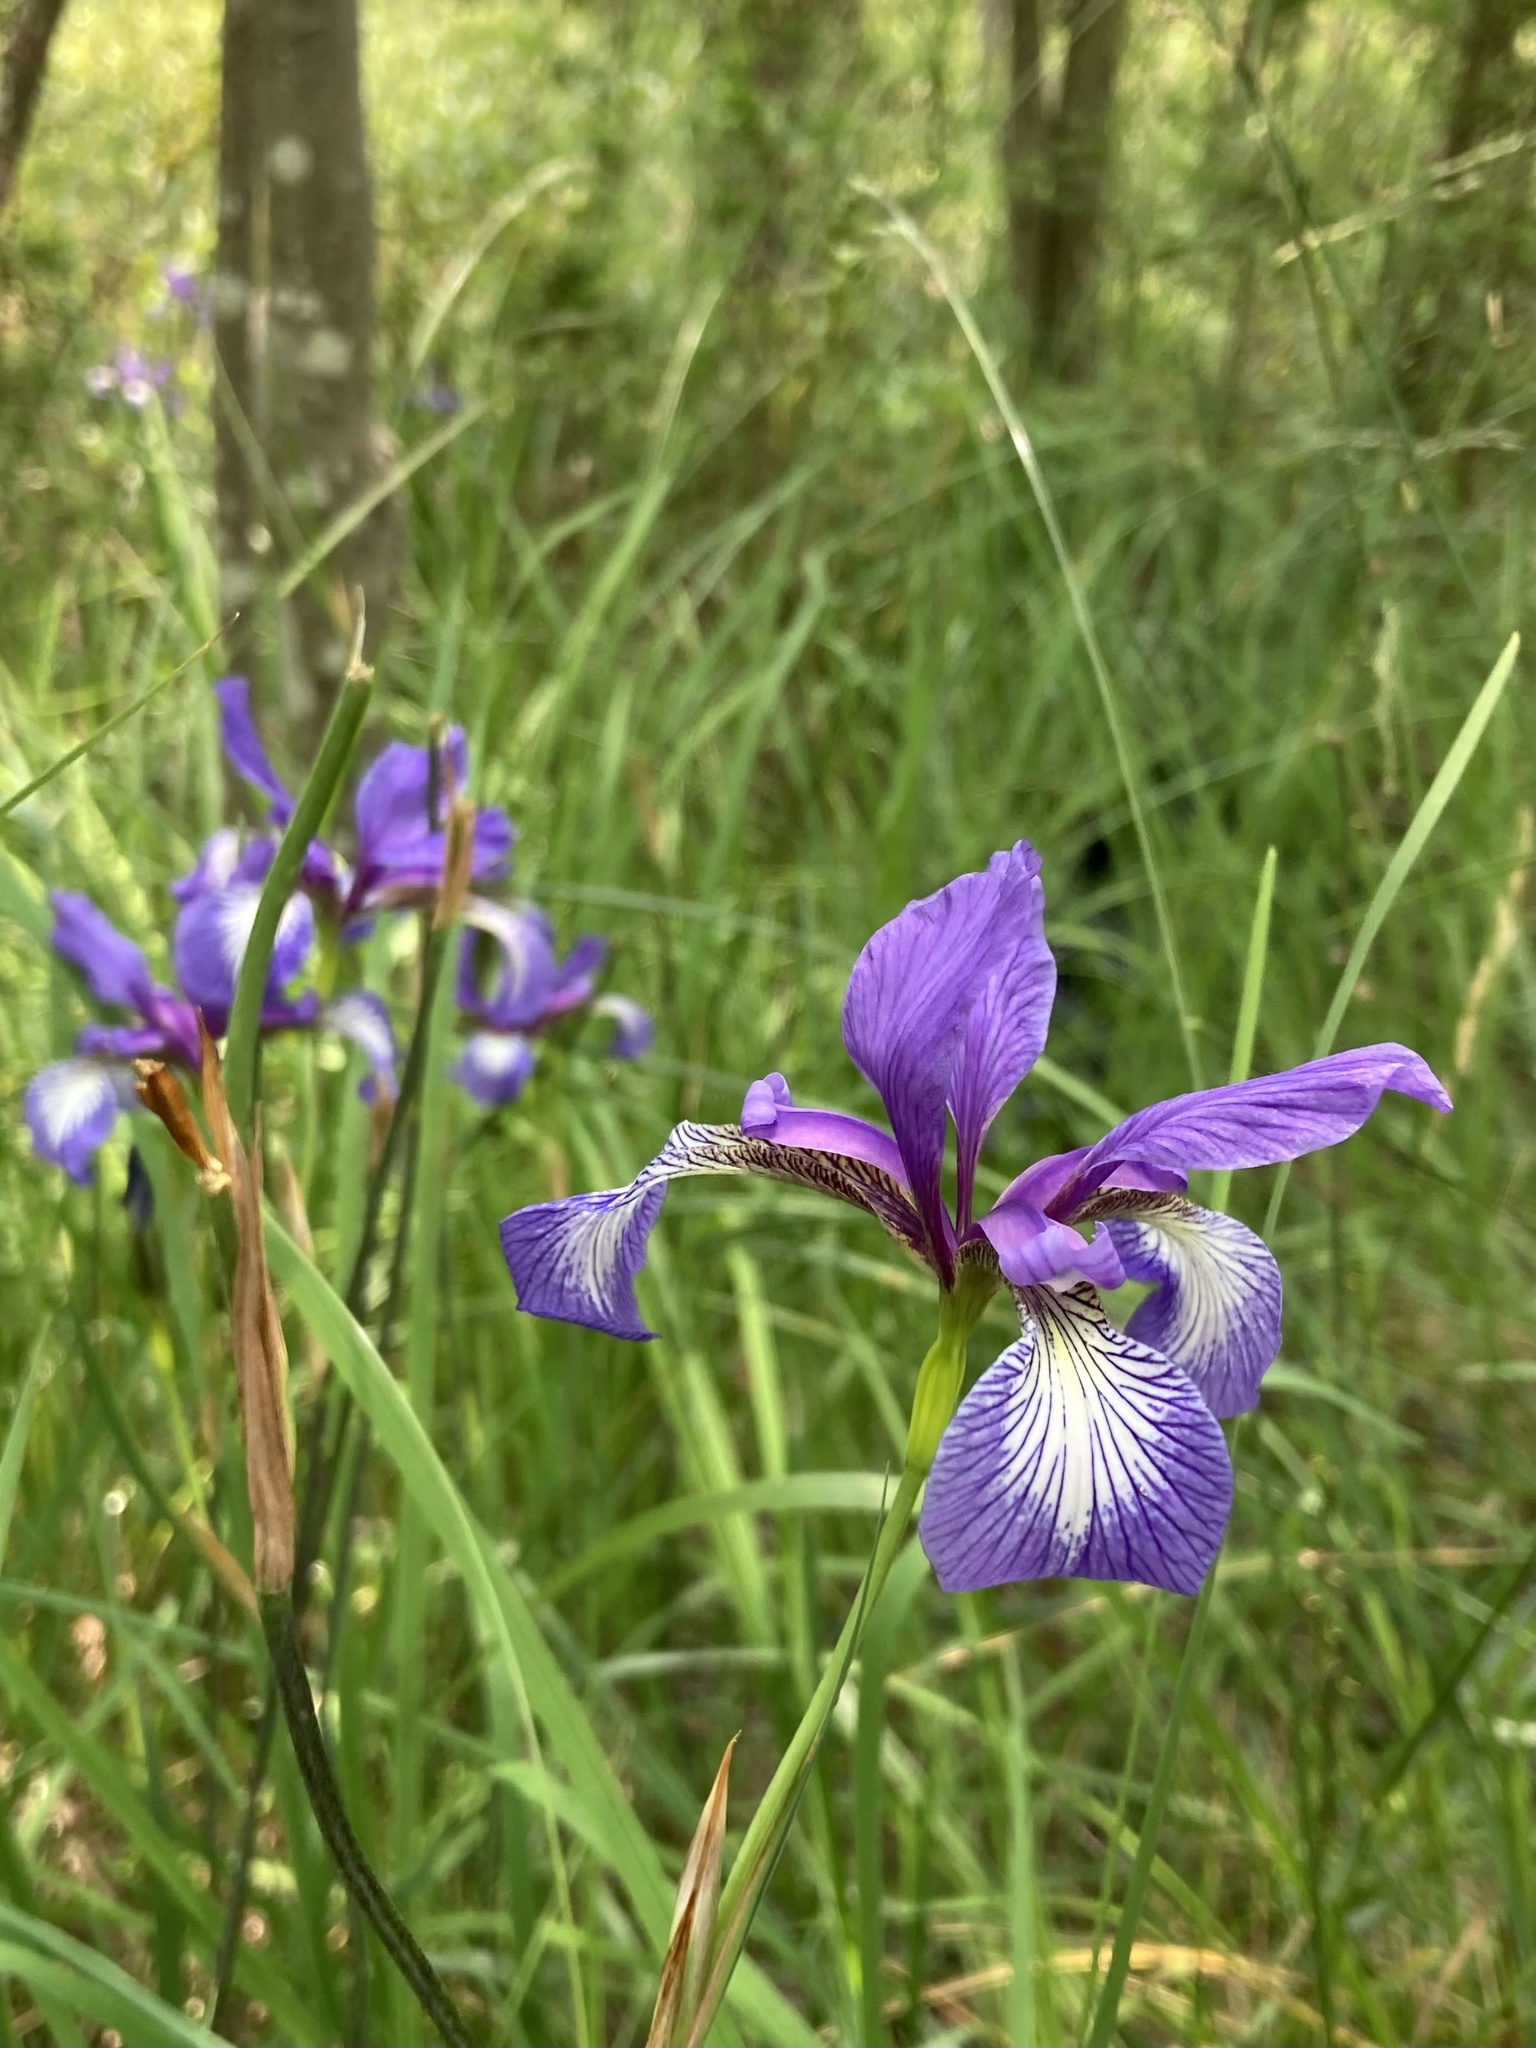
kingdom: Plantae
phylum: Tracheophyta
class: Liliopsida
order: Asparagales
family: Iridaceae
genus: Iris
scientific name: Iris prismatica
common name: Slender blue flag
